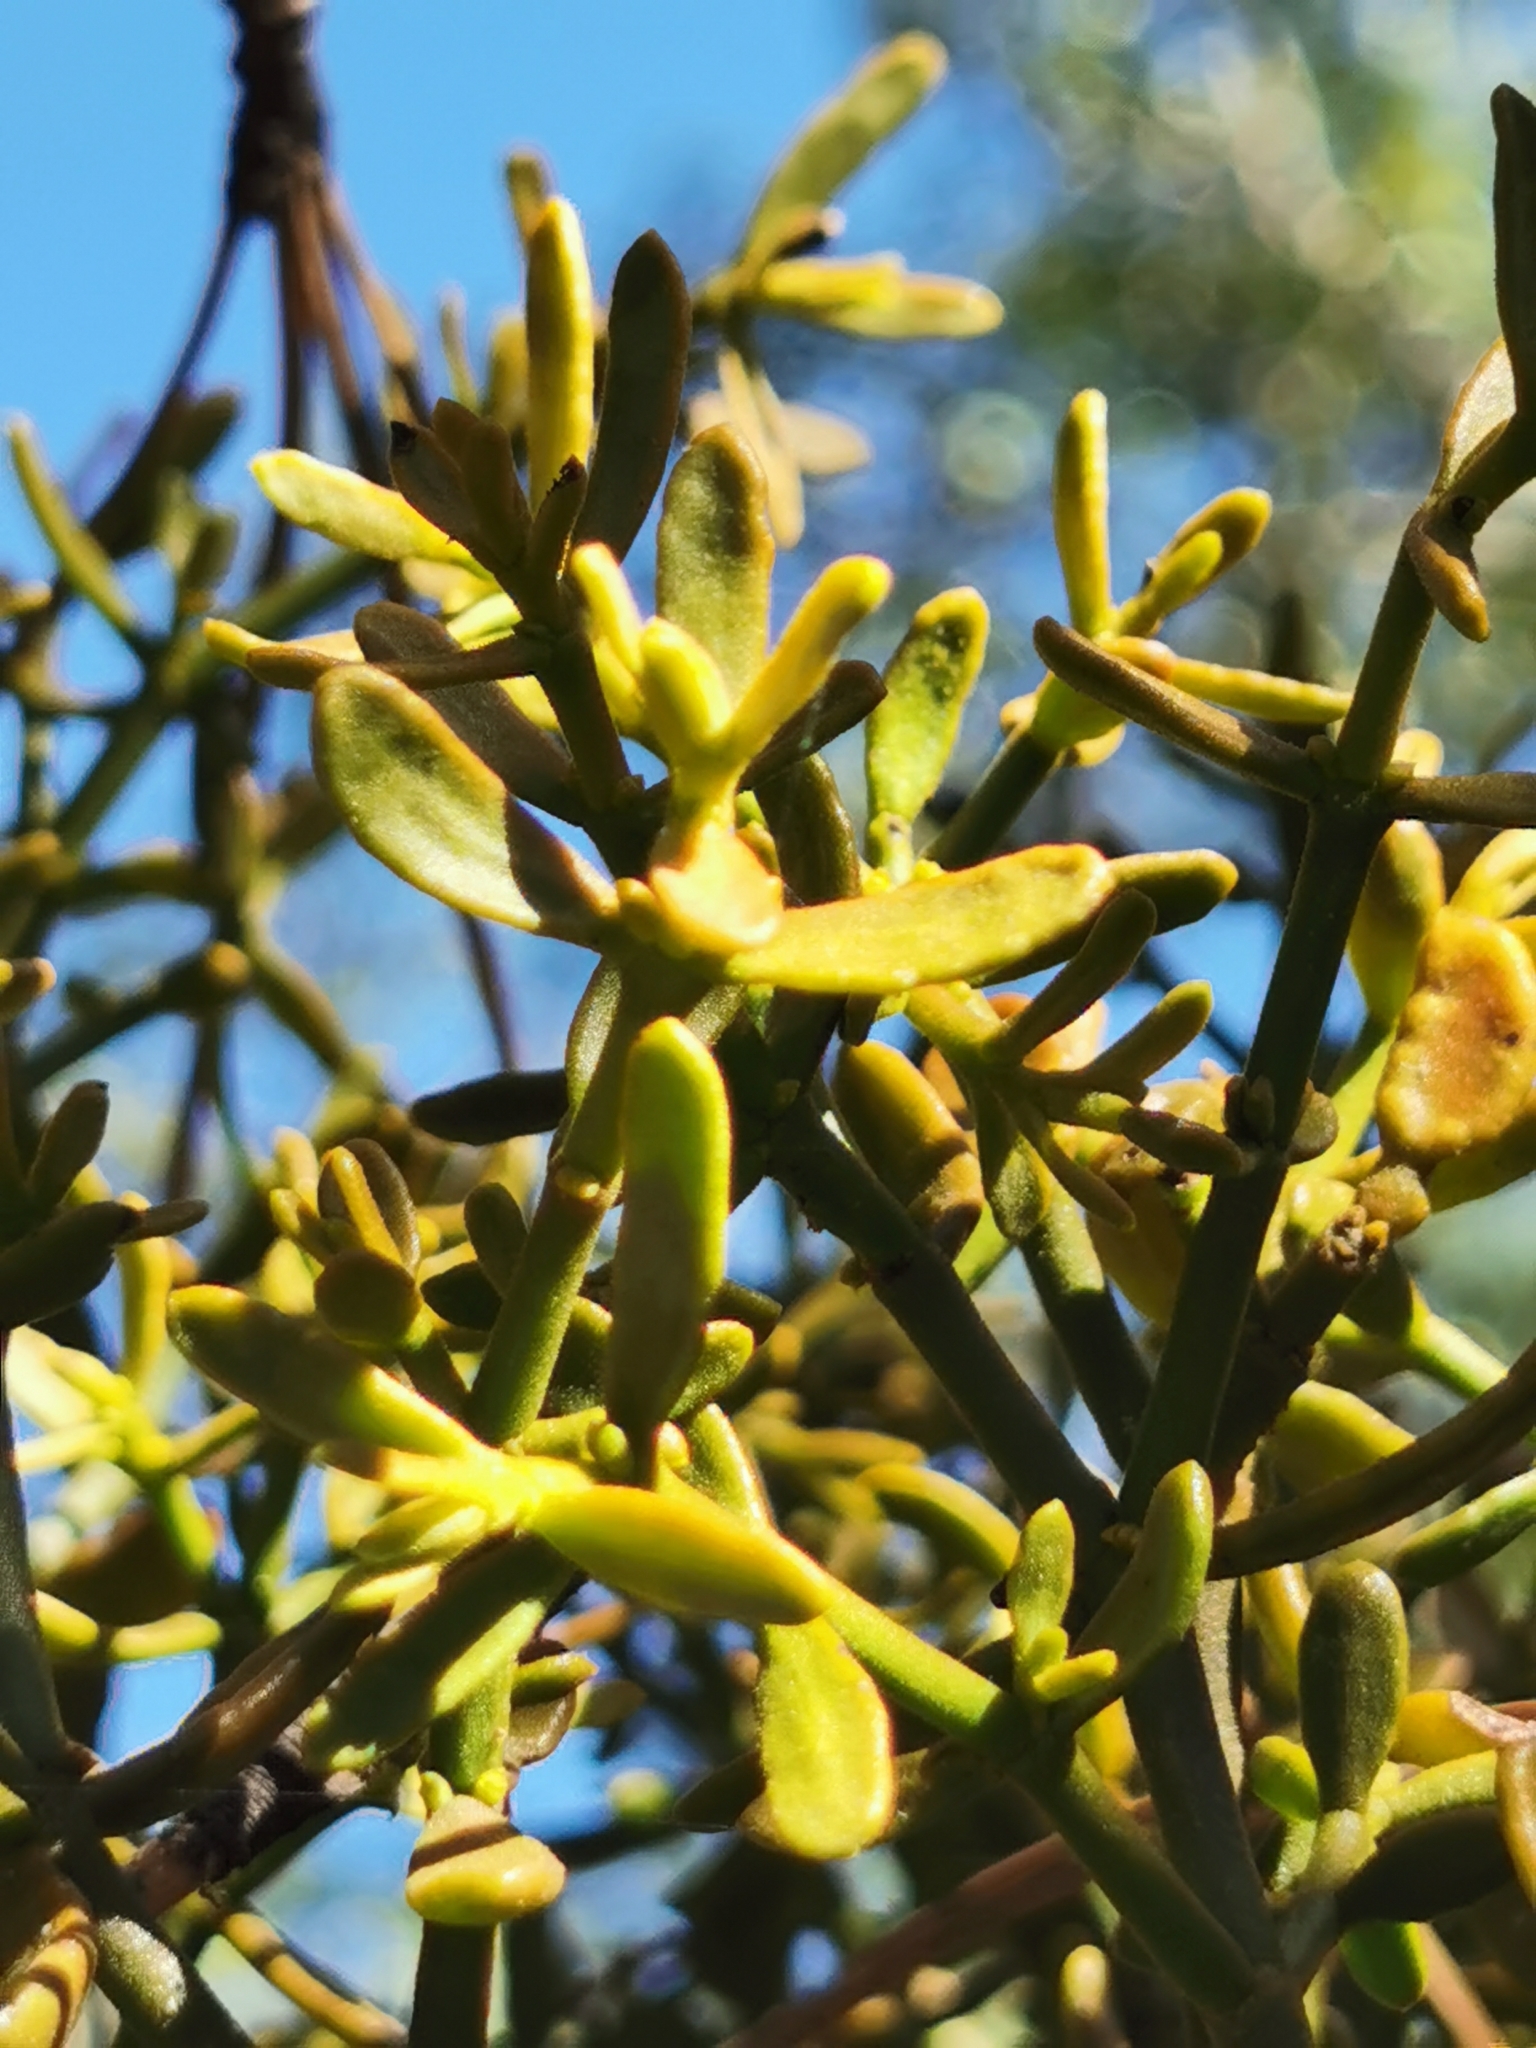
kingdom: Plantae
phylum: Tracheophyta
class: Magnoliopsida
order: Santalales
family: Viscaceae
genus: Phoradendron
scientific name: Phoradendron bolleanum
